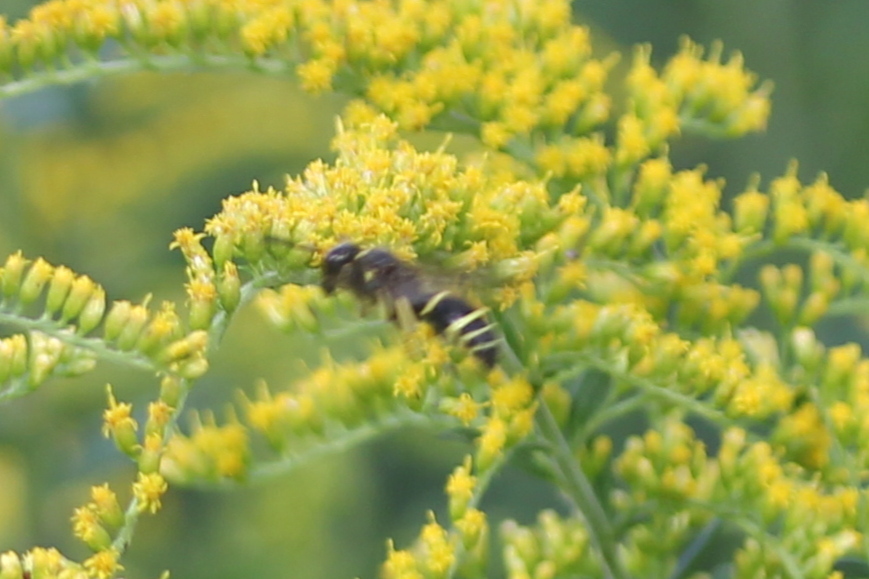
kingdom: Animalia
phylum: Arthropoda
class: Insecta
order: Hymenoptera
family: Vespidae
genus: Ancistrocerus
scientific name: Ancistrocerus
